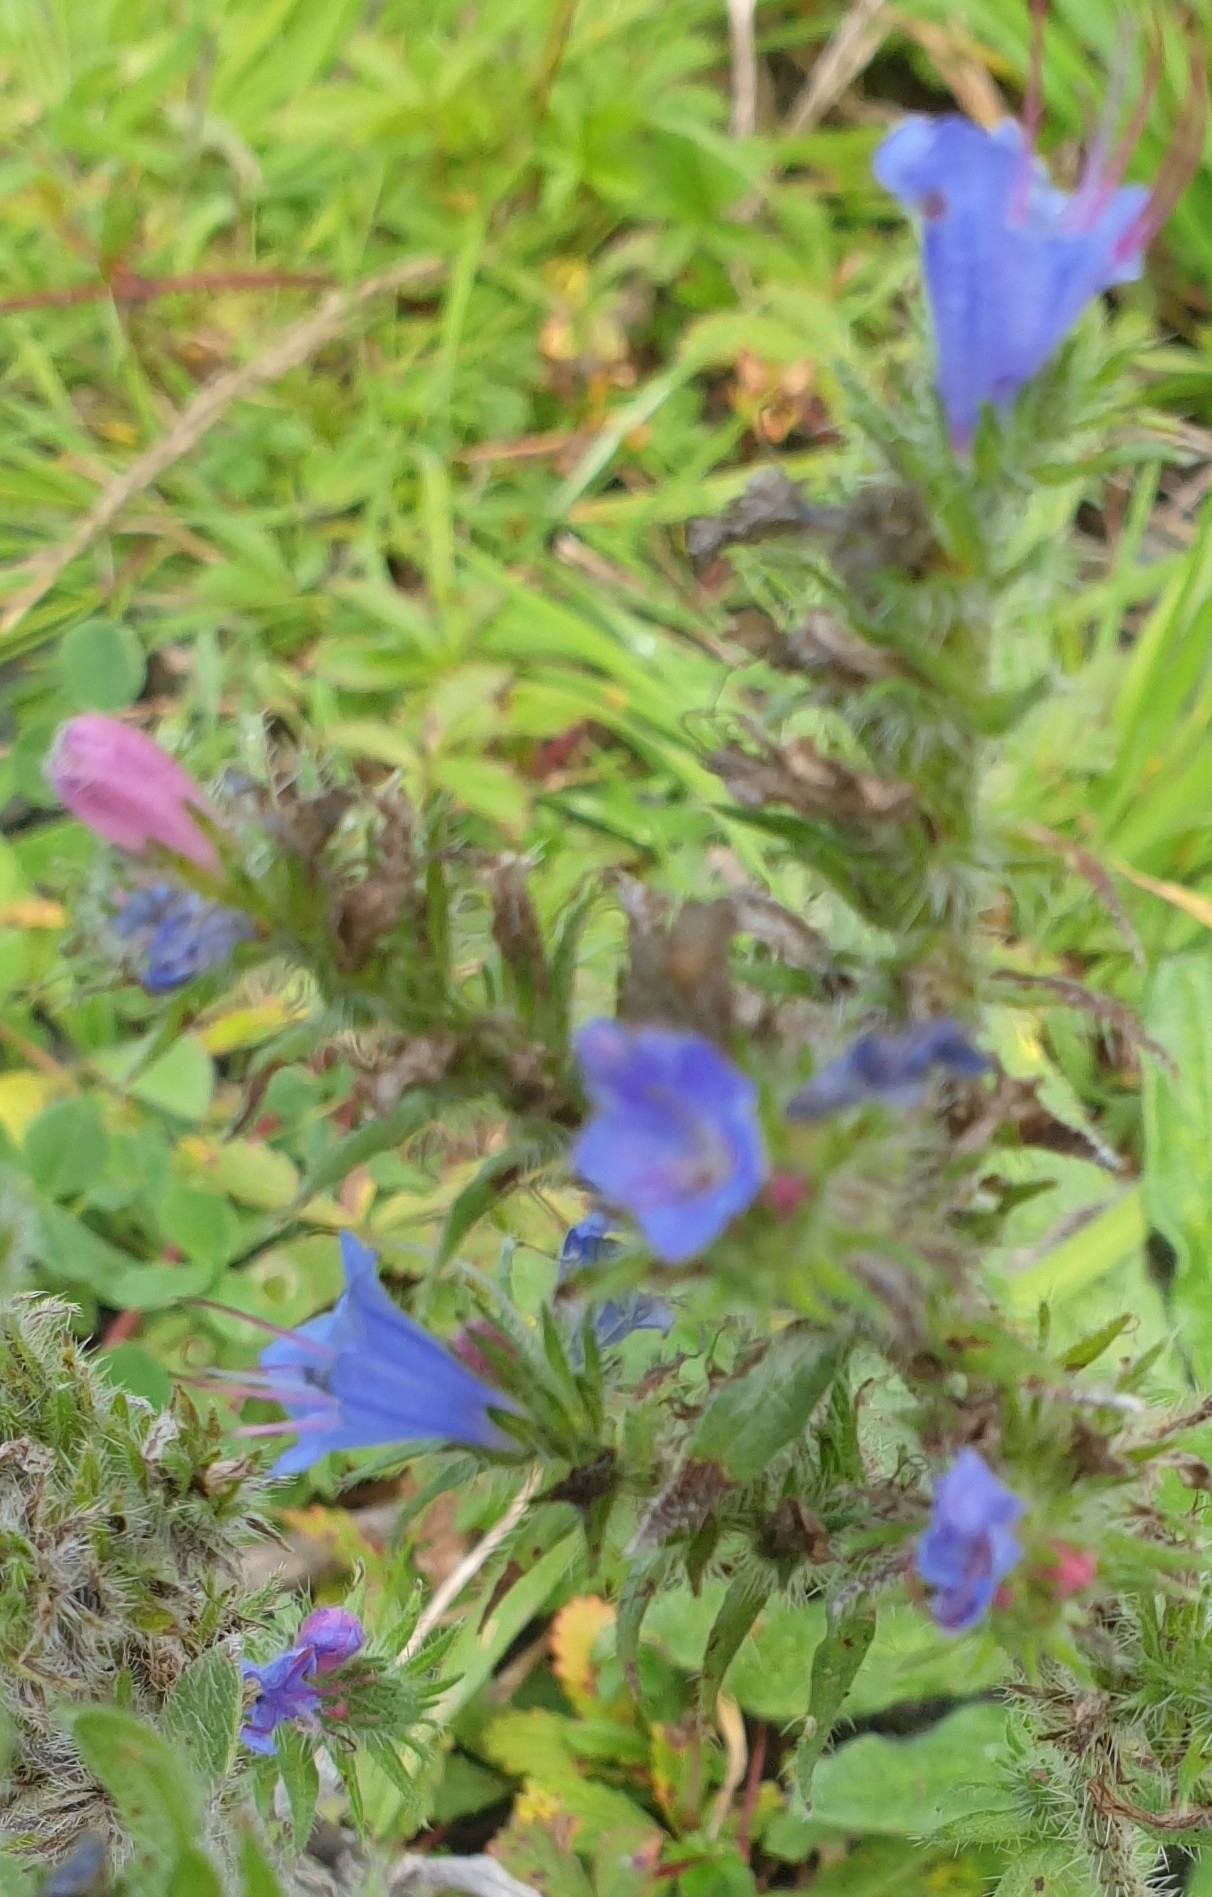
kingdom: Plantae
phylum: Tracheophyta
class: Magnoliopsida
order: Boraginales
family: Boraginaceae
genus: Echium
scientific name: Echium vulgare
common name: Common viper's bugloss
